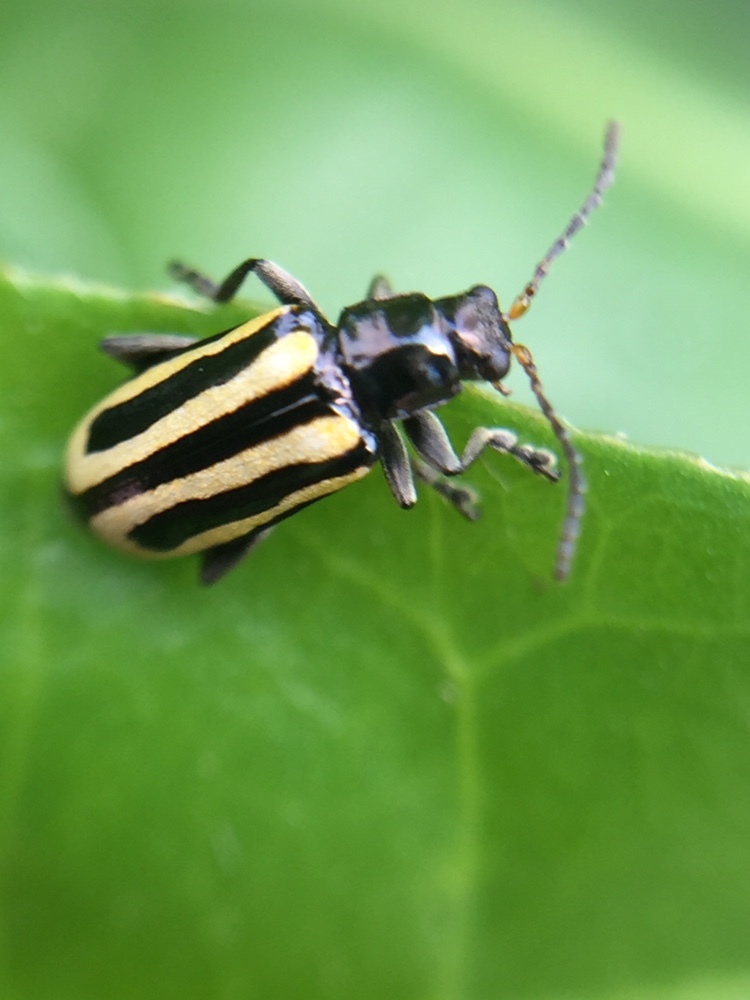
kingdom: Animalia
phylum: Arthropoda
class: Insecta
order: Coleoptera
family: Chrysomelidae
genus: Agasicles
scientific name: Agasicles hygrophila
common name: Alligatorweed flea beetle
